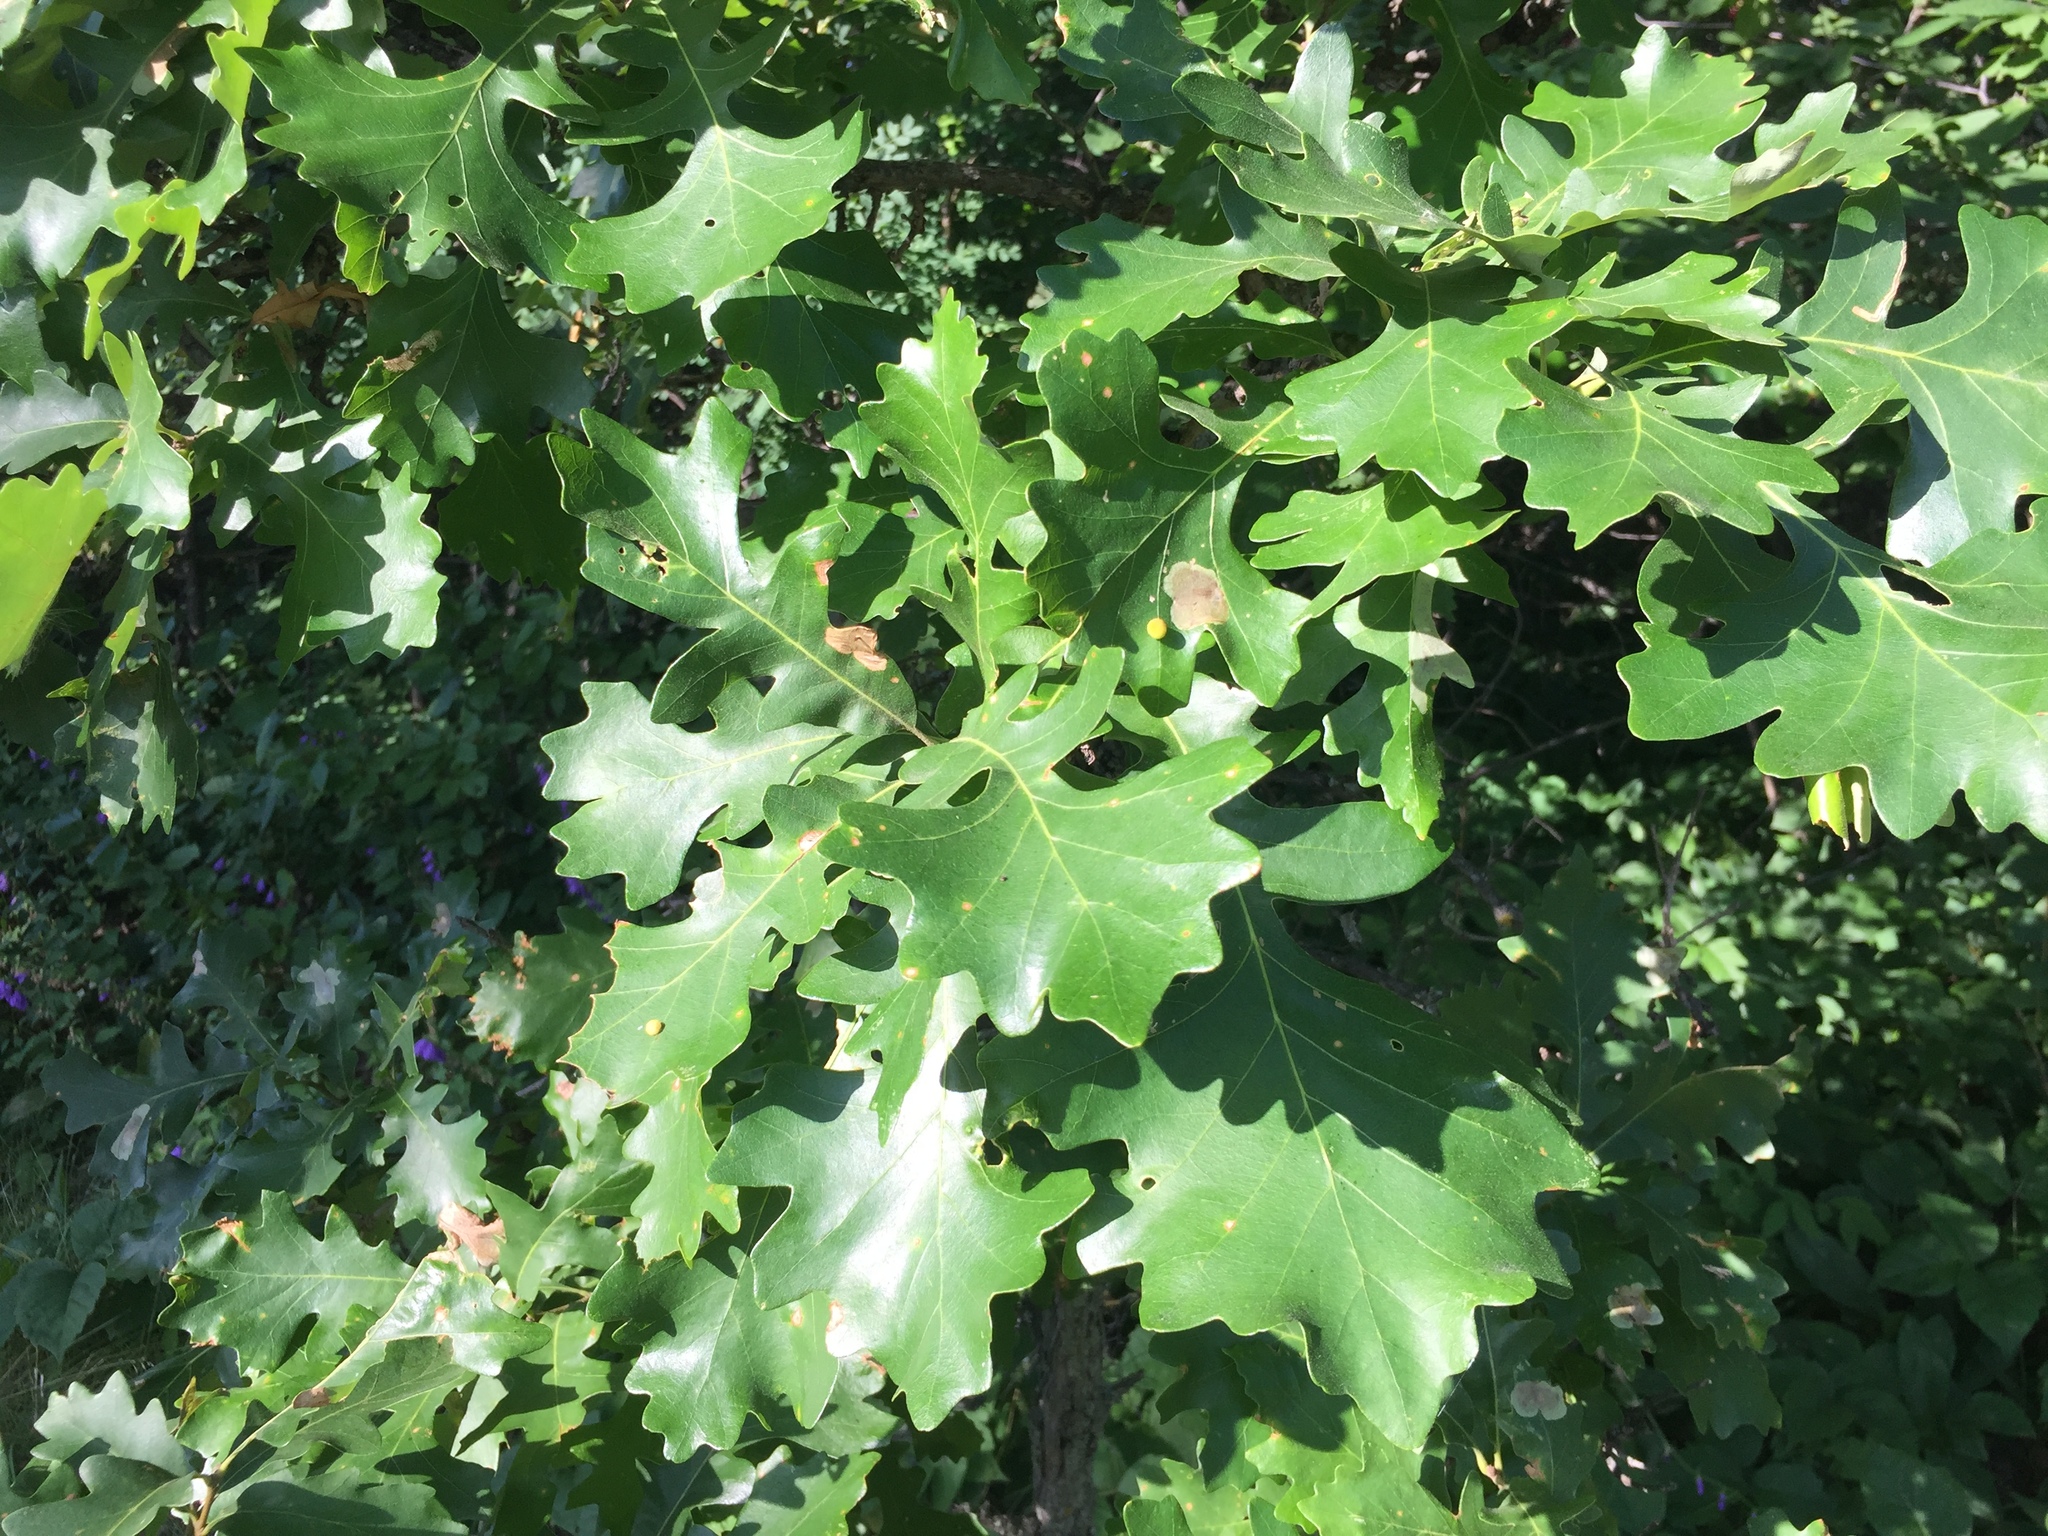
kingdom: Plantae
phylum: Tracheophyta
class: Magnoliopsida
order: Fagales
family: Fagaceae
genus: Quercus
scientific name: Quercus macrocarpa
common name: Bur oak
